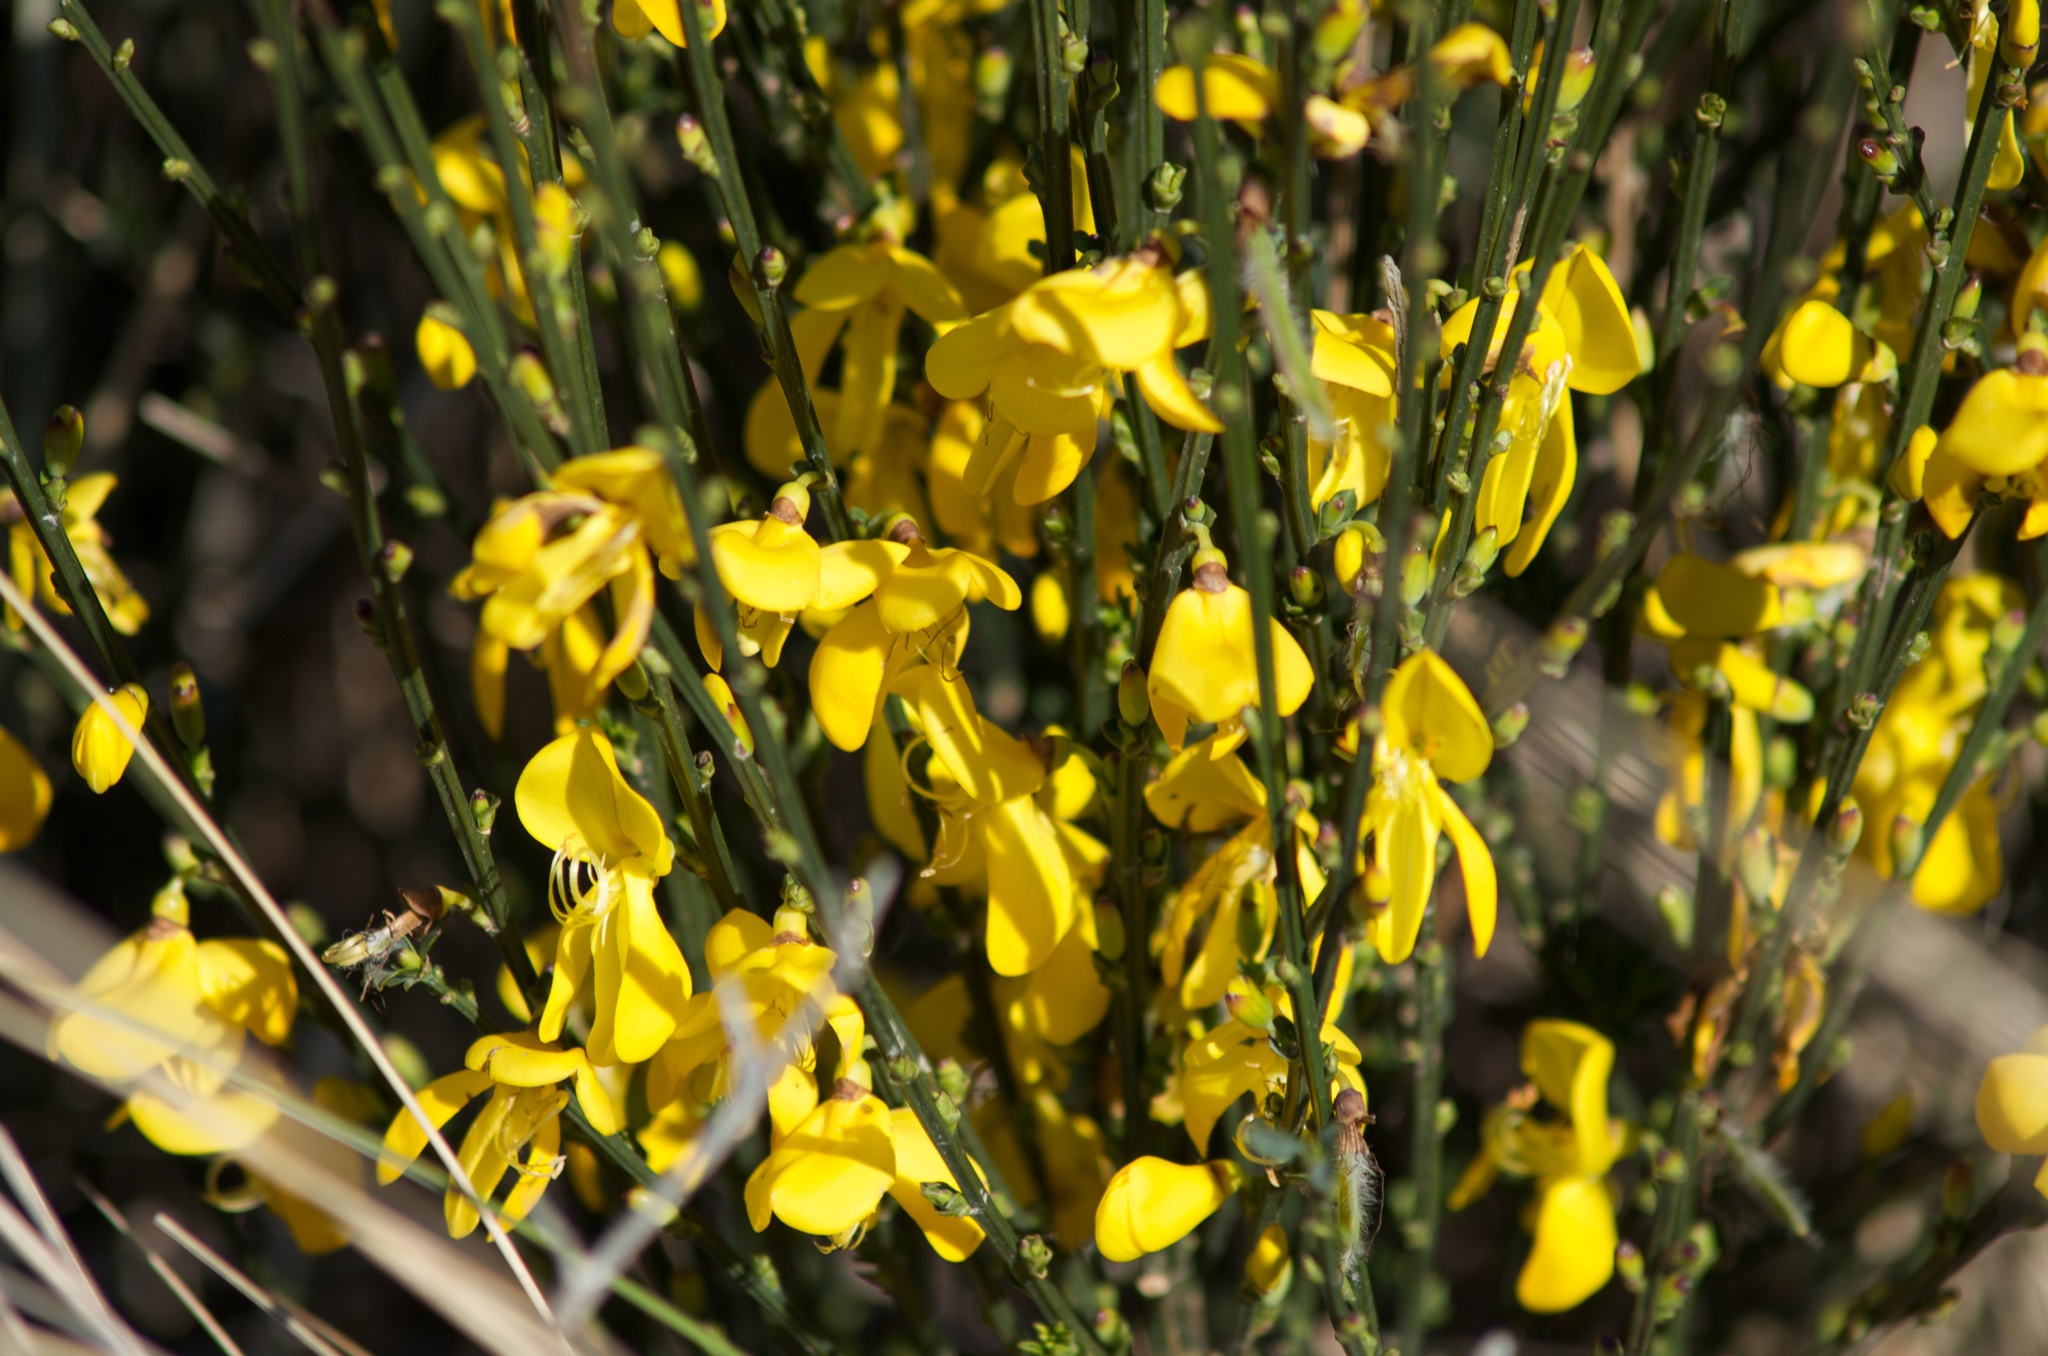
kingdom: Plantae
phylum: Tracheophyta
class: Magnoliopsida
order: Fabales
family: Fabaceae
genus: Cytisus
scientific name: Cytisus scoparius
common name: Scotch broom
